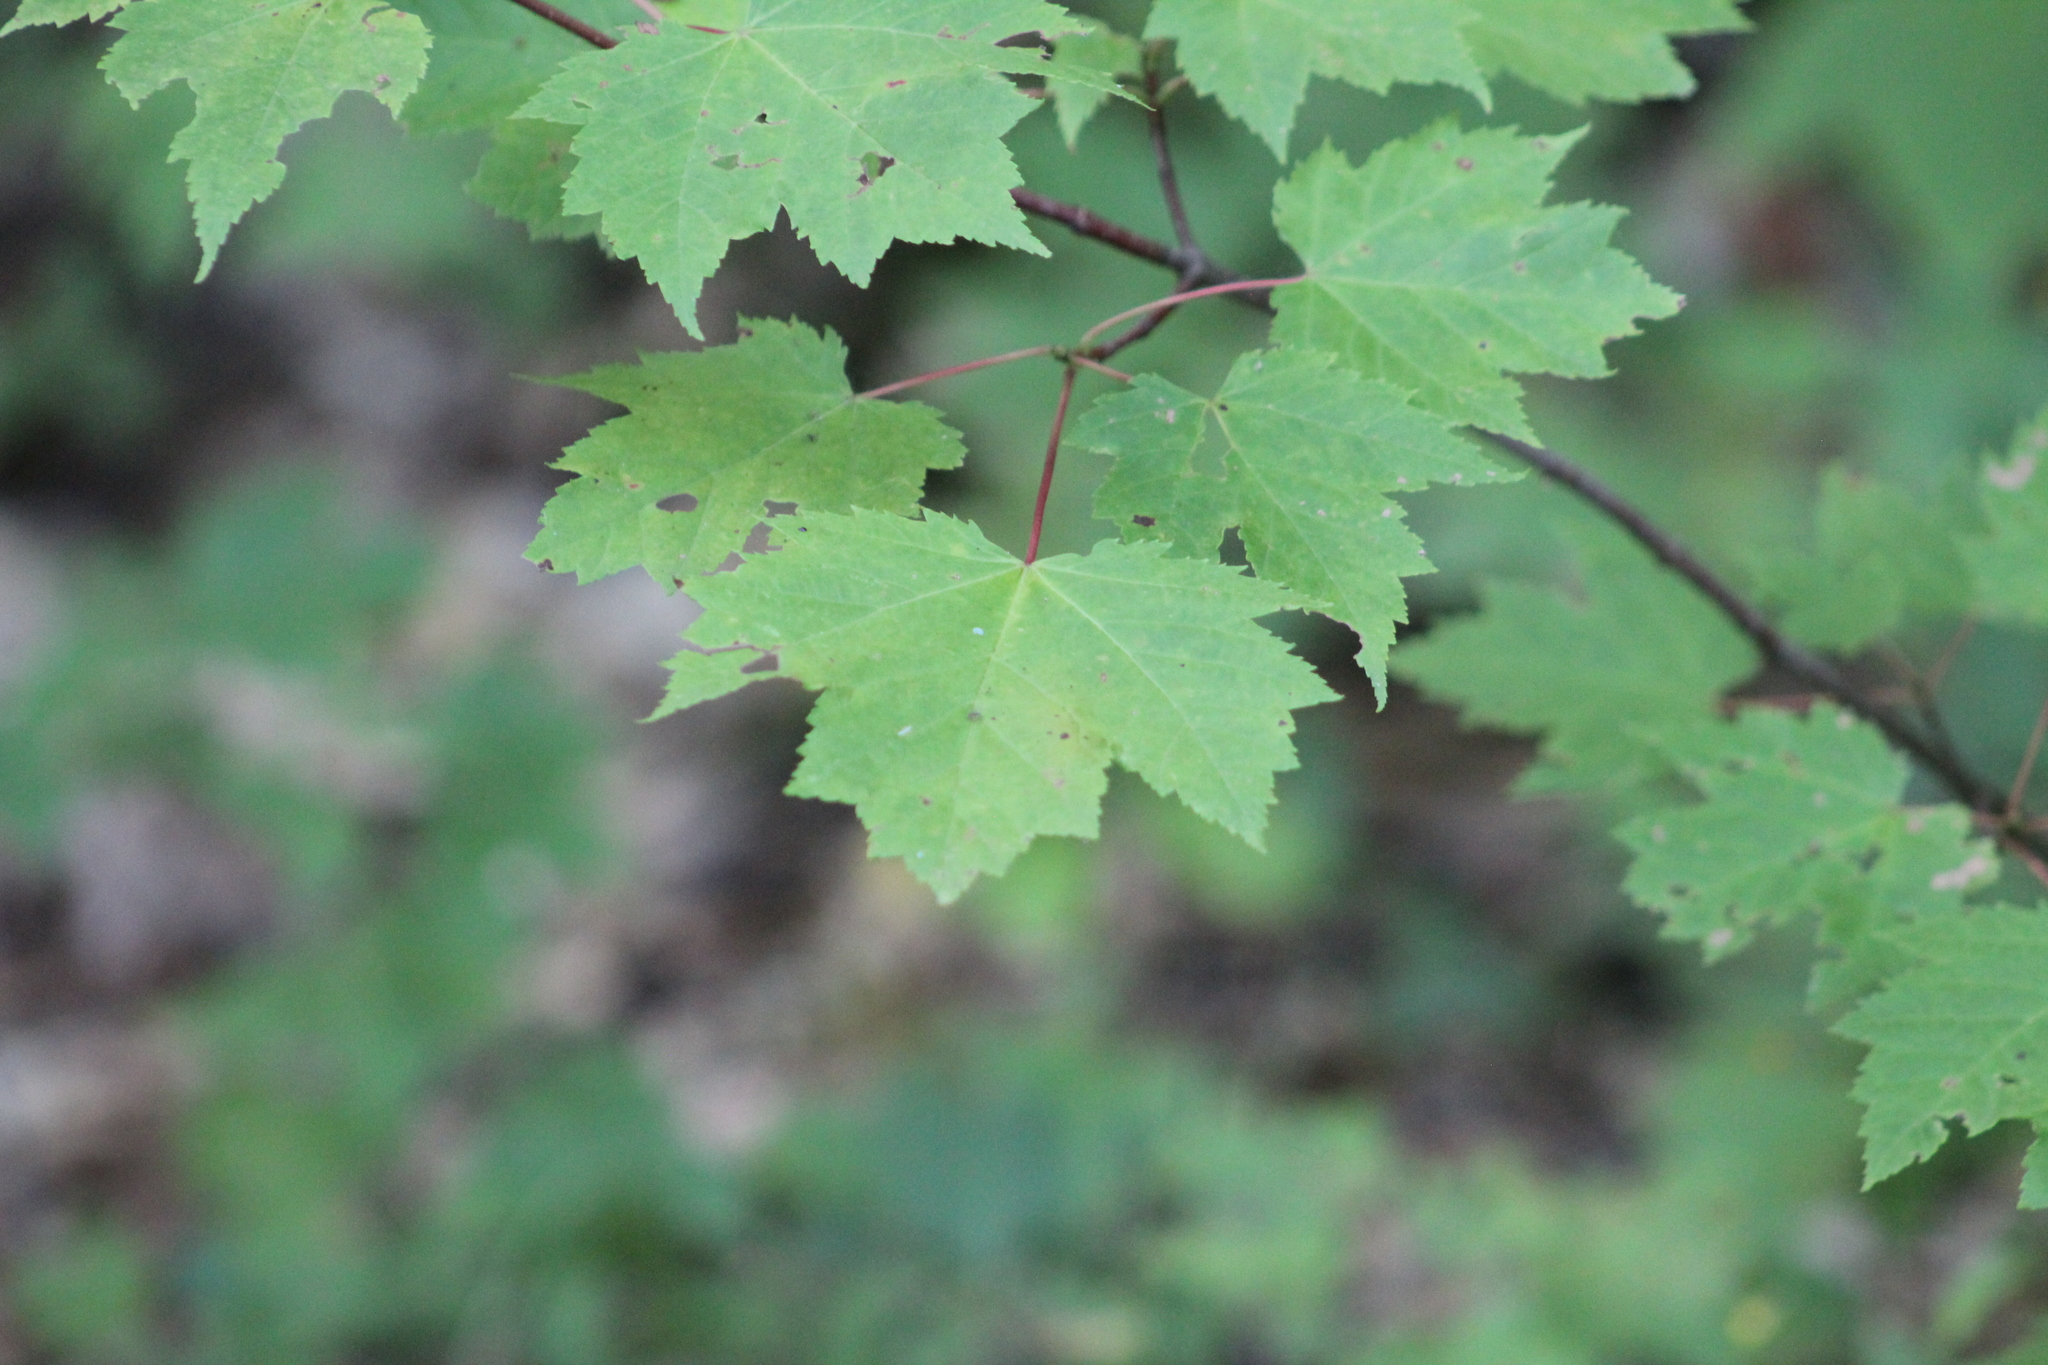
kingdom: Plantae
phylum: Tracheophyta
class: Magnoliopsida
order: Sapindales
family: Sapindaceae
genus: Acer
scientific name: Acer rubrum
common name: Red maple
